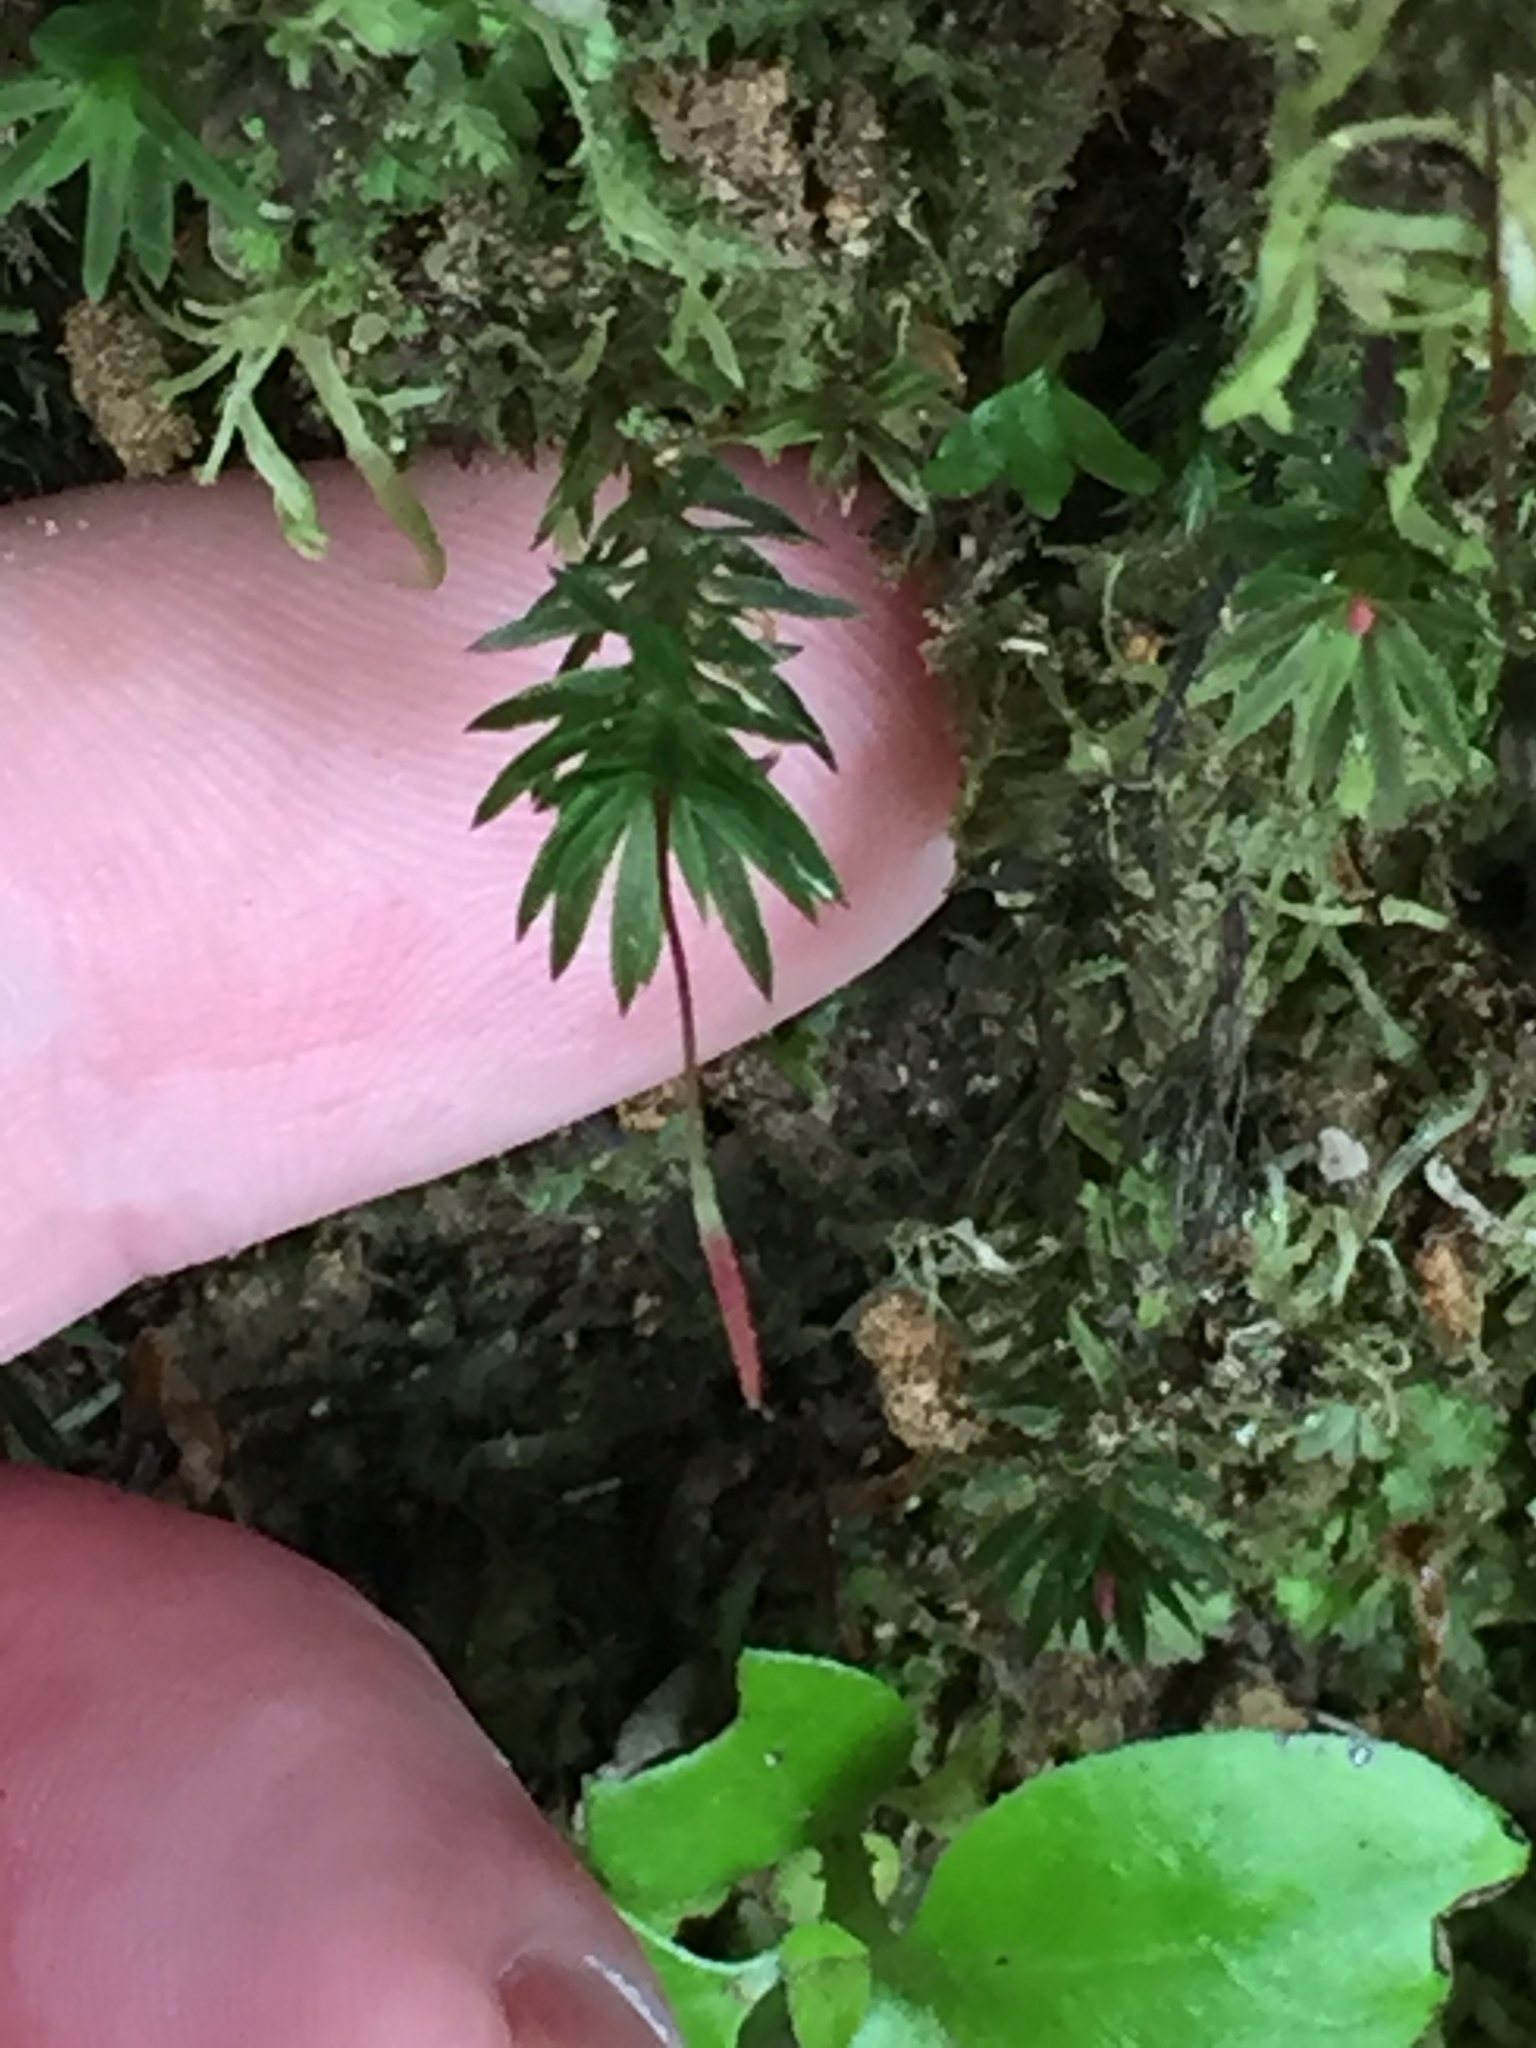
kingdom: Plantae
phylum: Bryophyta
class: Polytrichopsida
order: Polytrichales
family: Polytrichaceae
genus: Pogonatum
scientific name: Pogonatum subulatum
